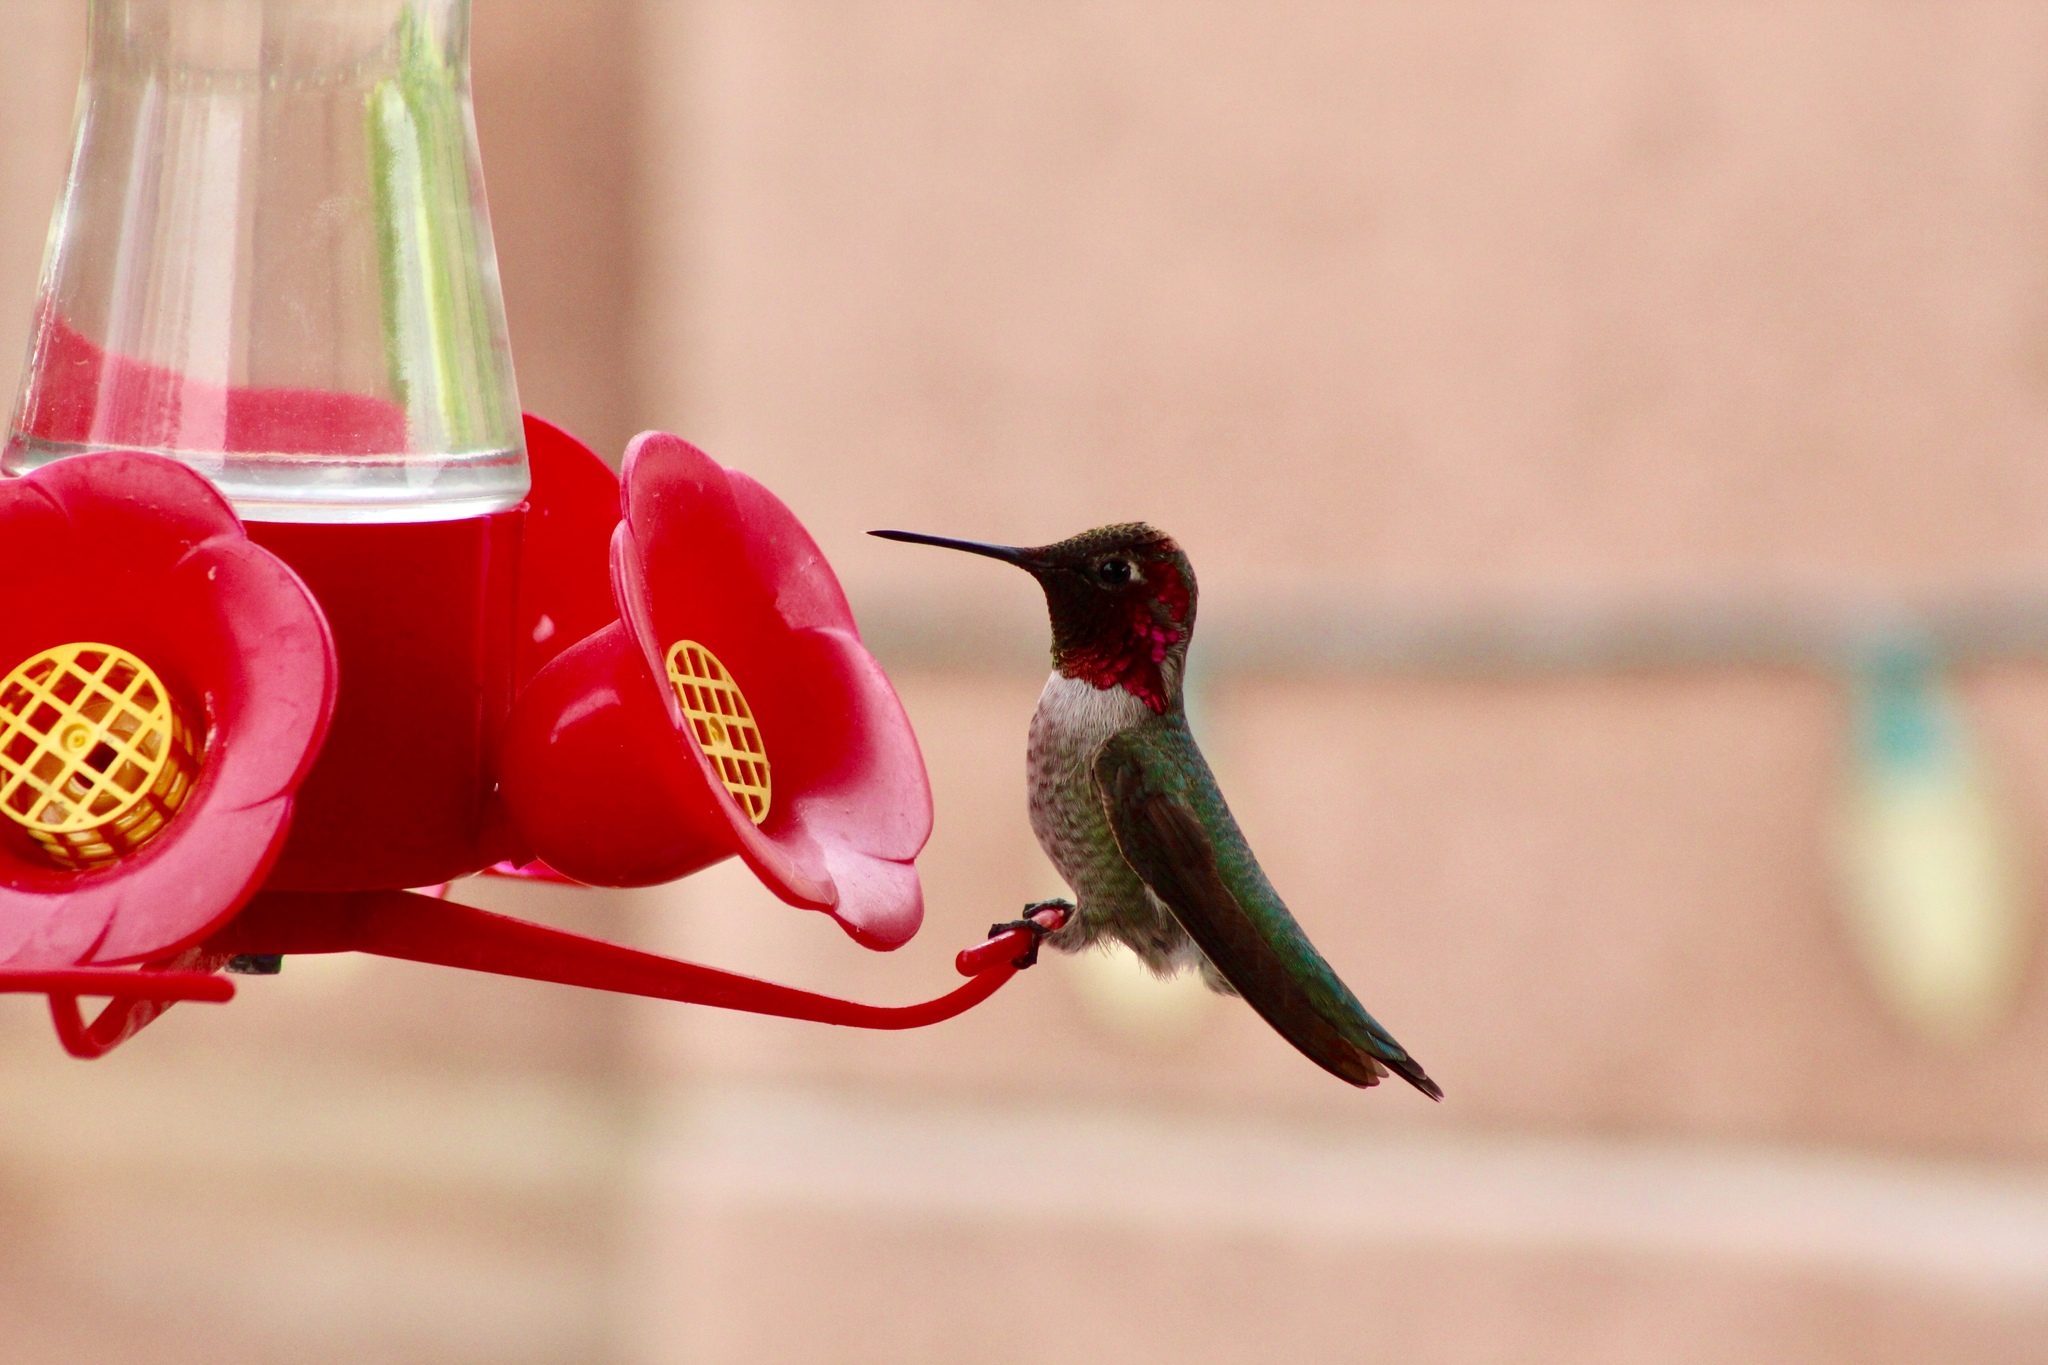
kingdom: Animalia
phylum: Chordata
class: Aves
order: Apodiformes
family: Trochilidae
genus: Calypte
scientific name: Calypte anna
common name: Anna's hummingbird
